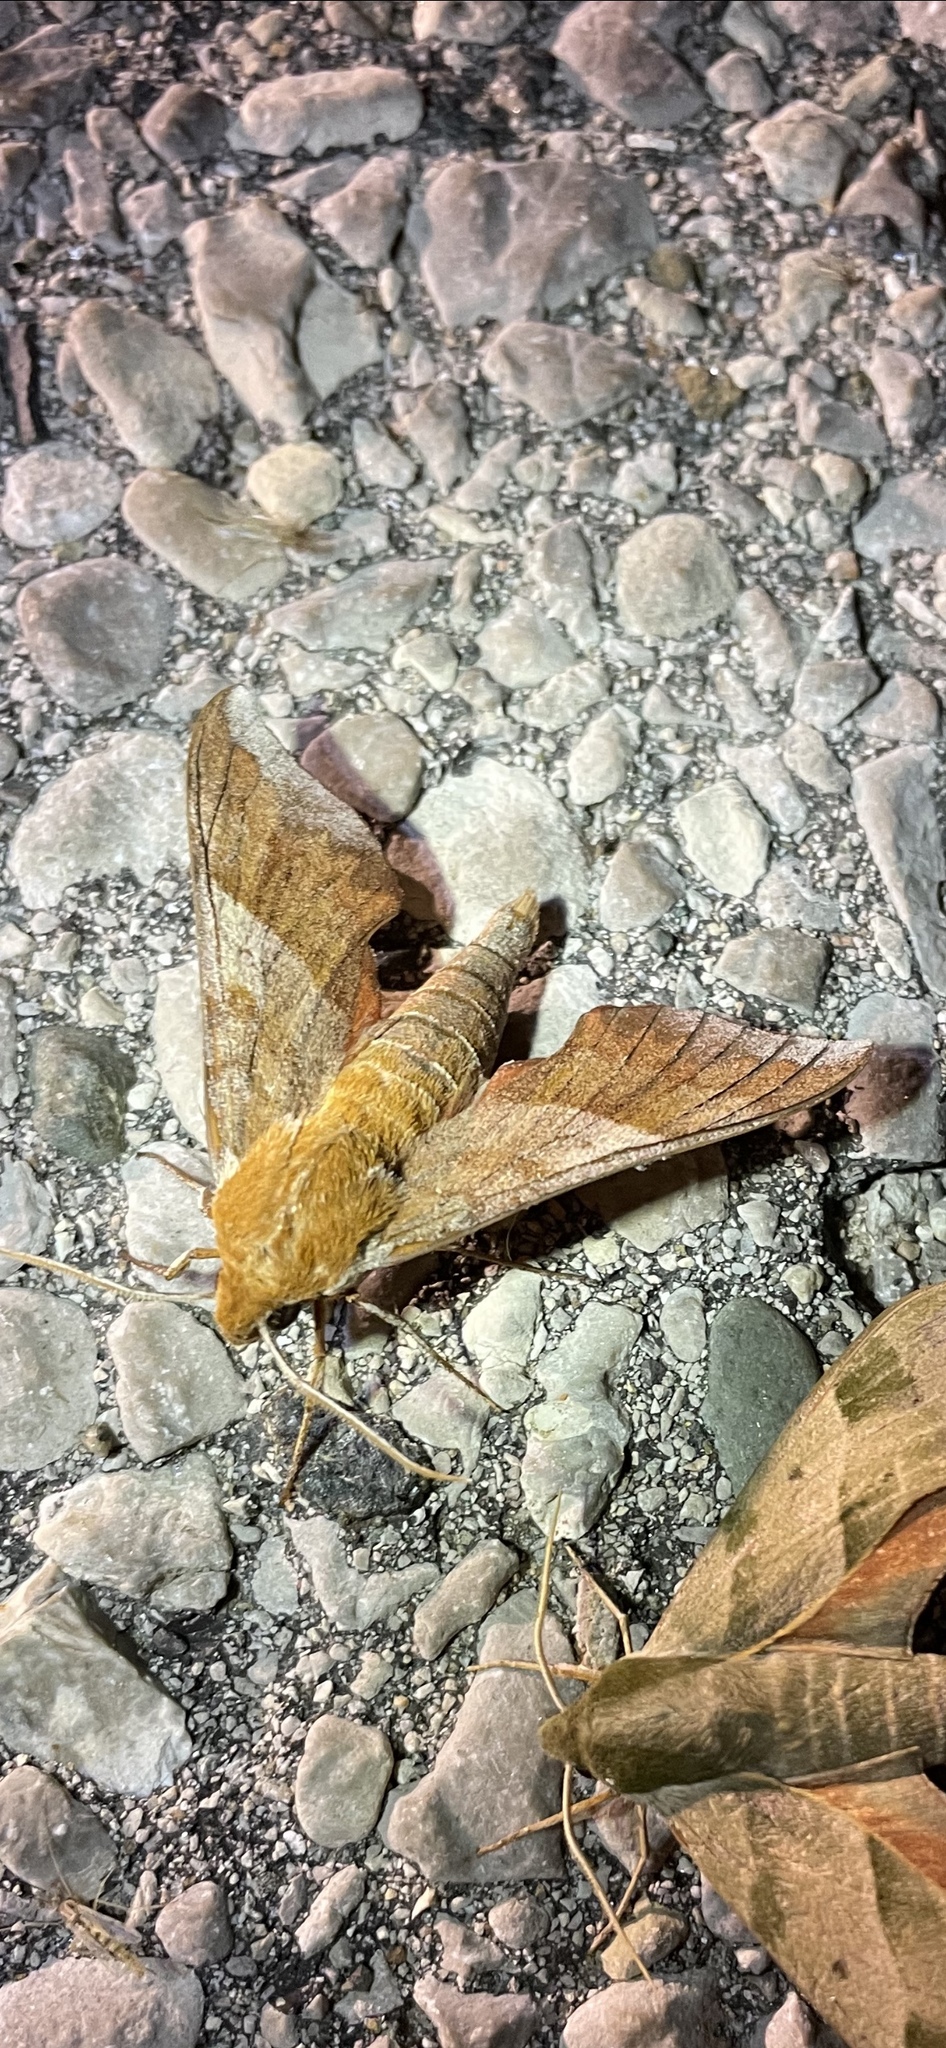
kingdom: Animalia
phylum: Arthropoda
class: Insecta
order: Lepidoptera
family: Sphingidae
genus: Darapsa
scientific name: Darapsa choerilus
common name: Azalea sphinx
